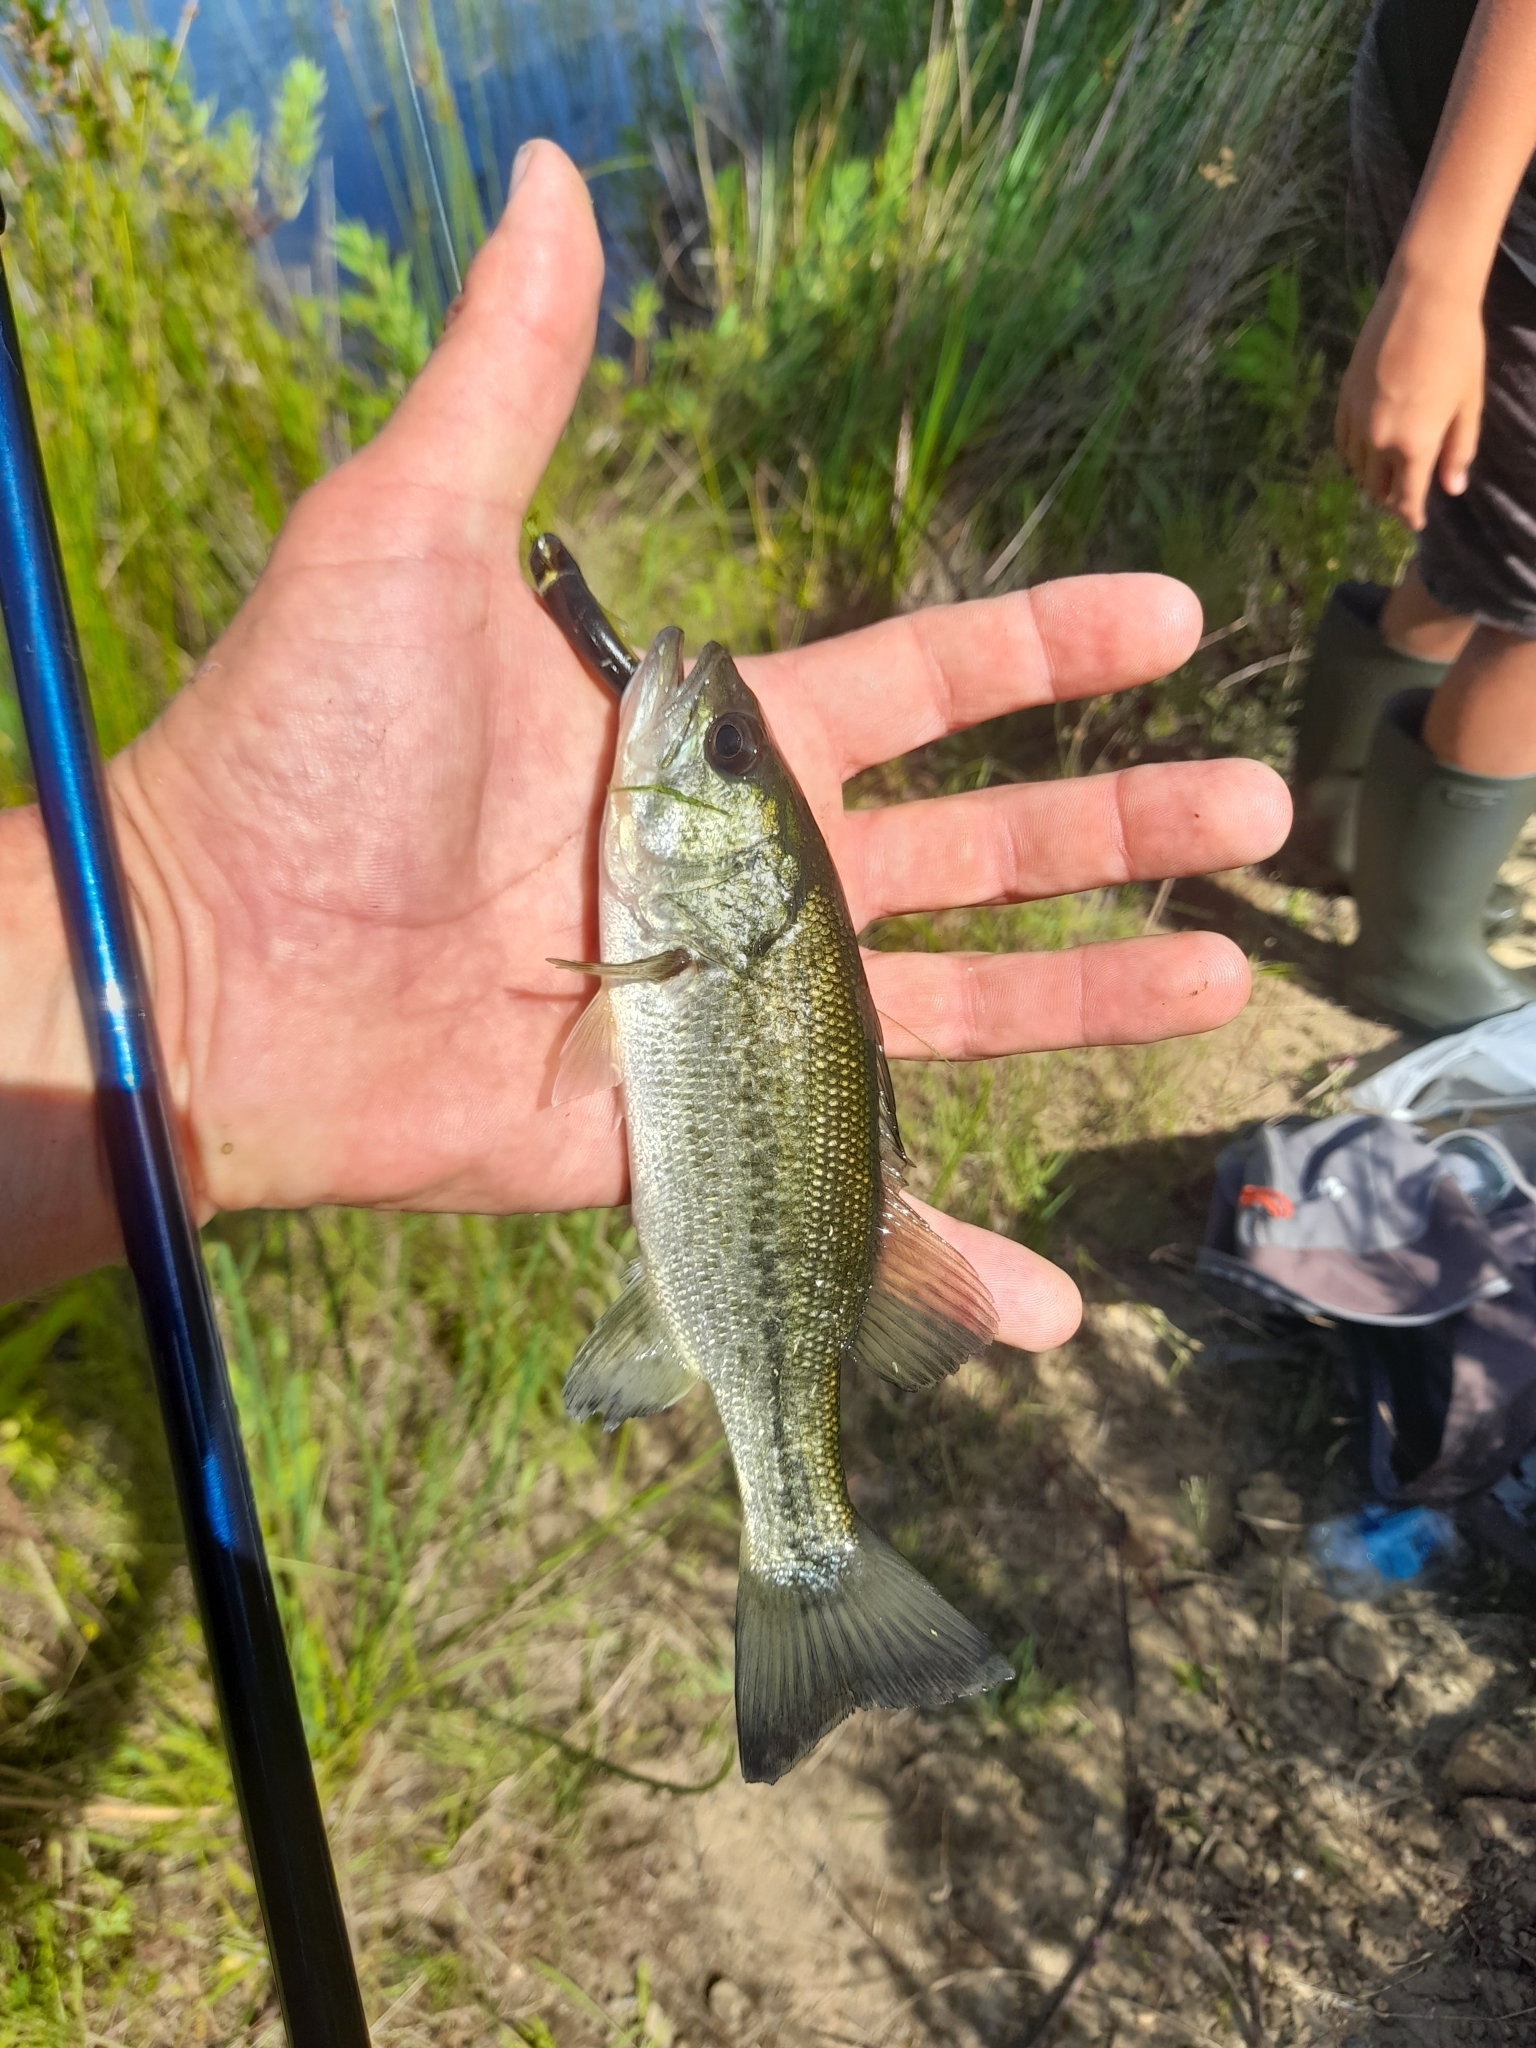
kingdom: Animalia
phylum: Chordata
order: Perciformes
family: Centrarchidae
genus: Micropterus
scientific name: Micropterus
